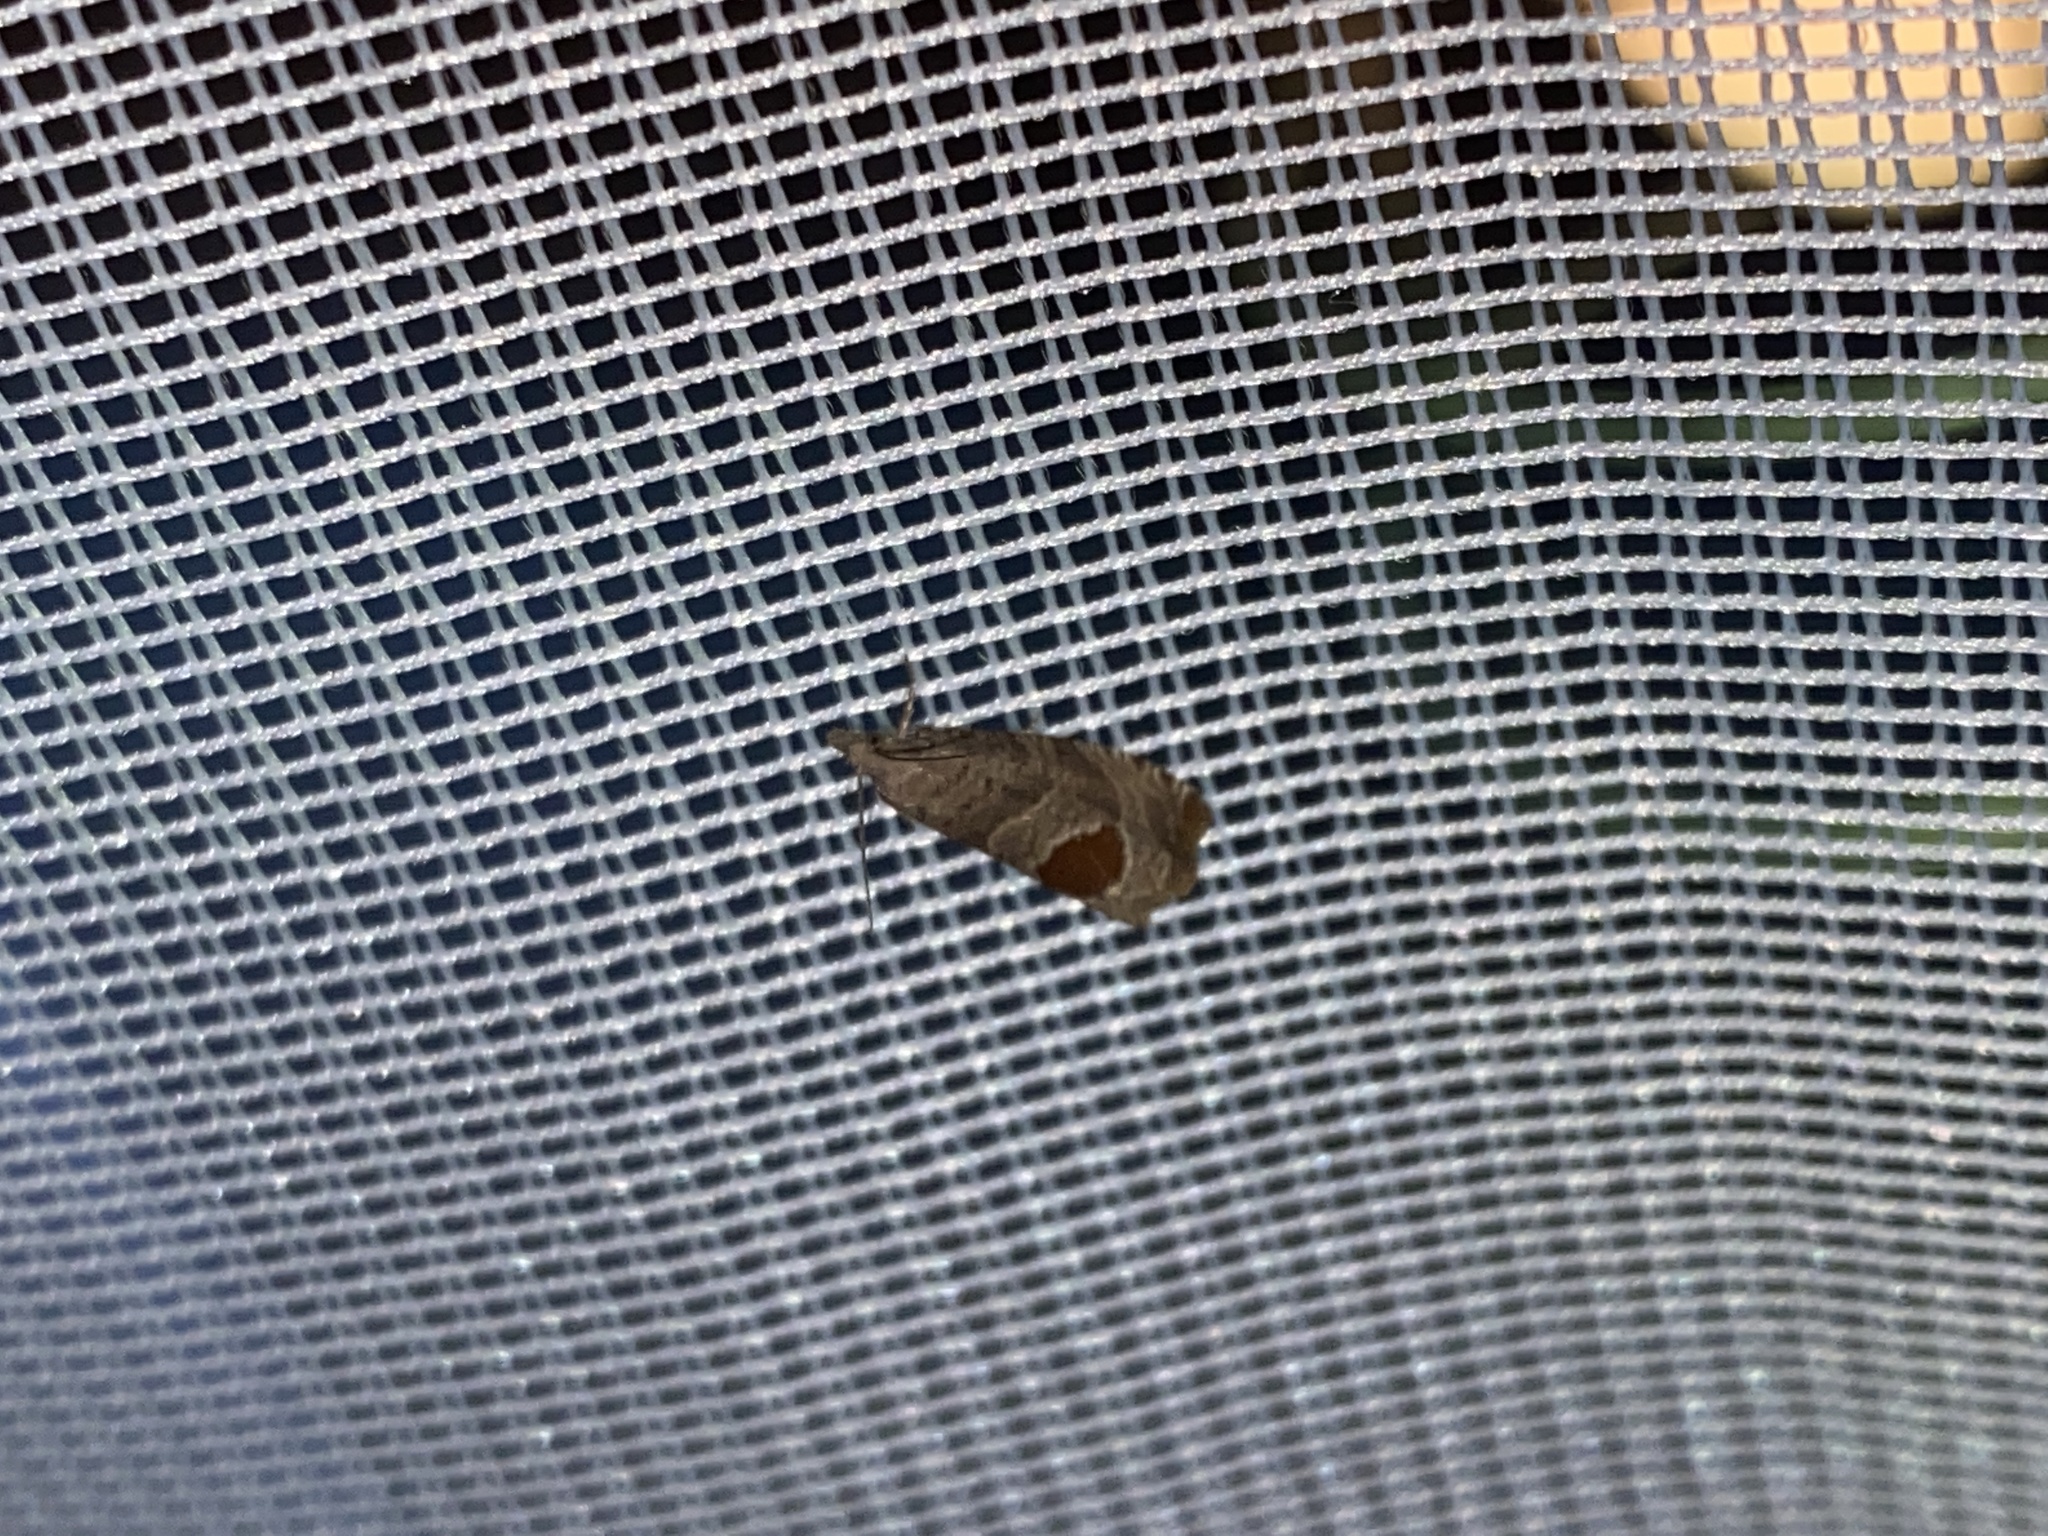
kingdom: Animalia
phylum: Arthropoda
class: Insecta
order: Lepidoptera
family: Tortricidae
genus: Notocelia
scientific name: Notocelia uddmanniana
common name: Bramble shoot moth
